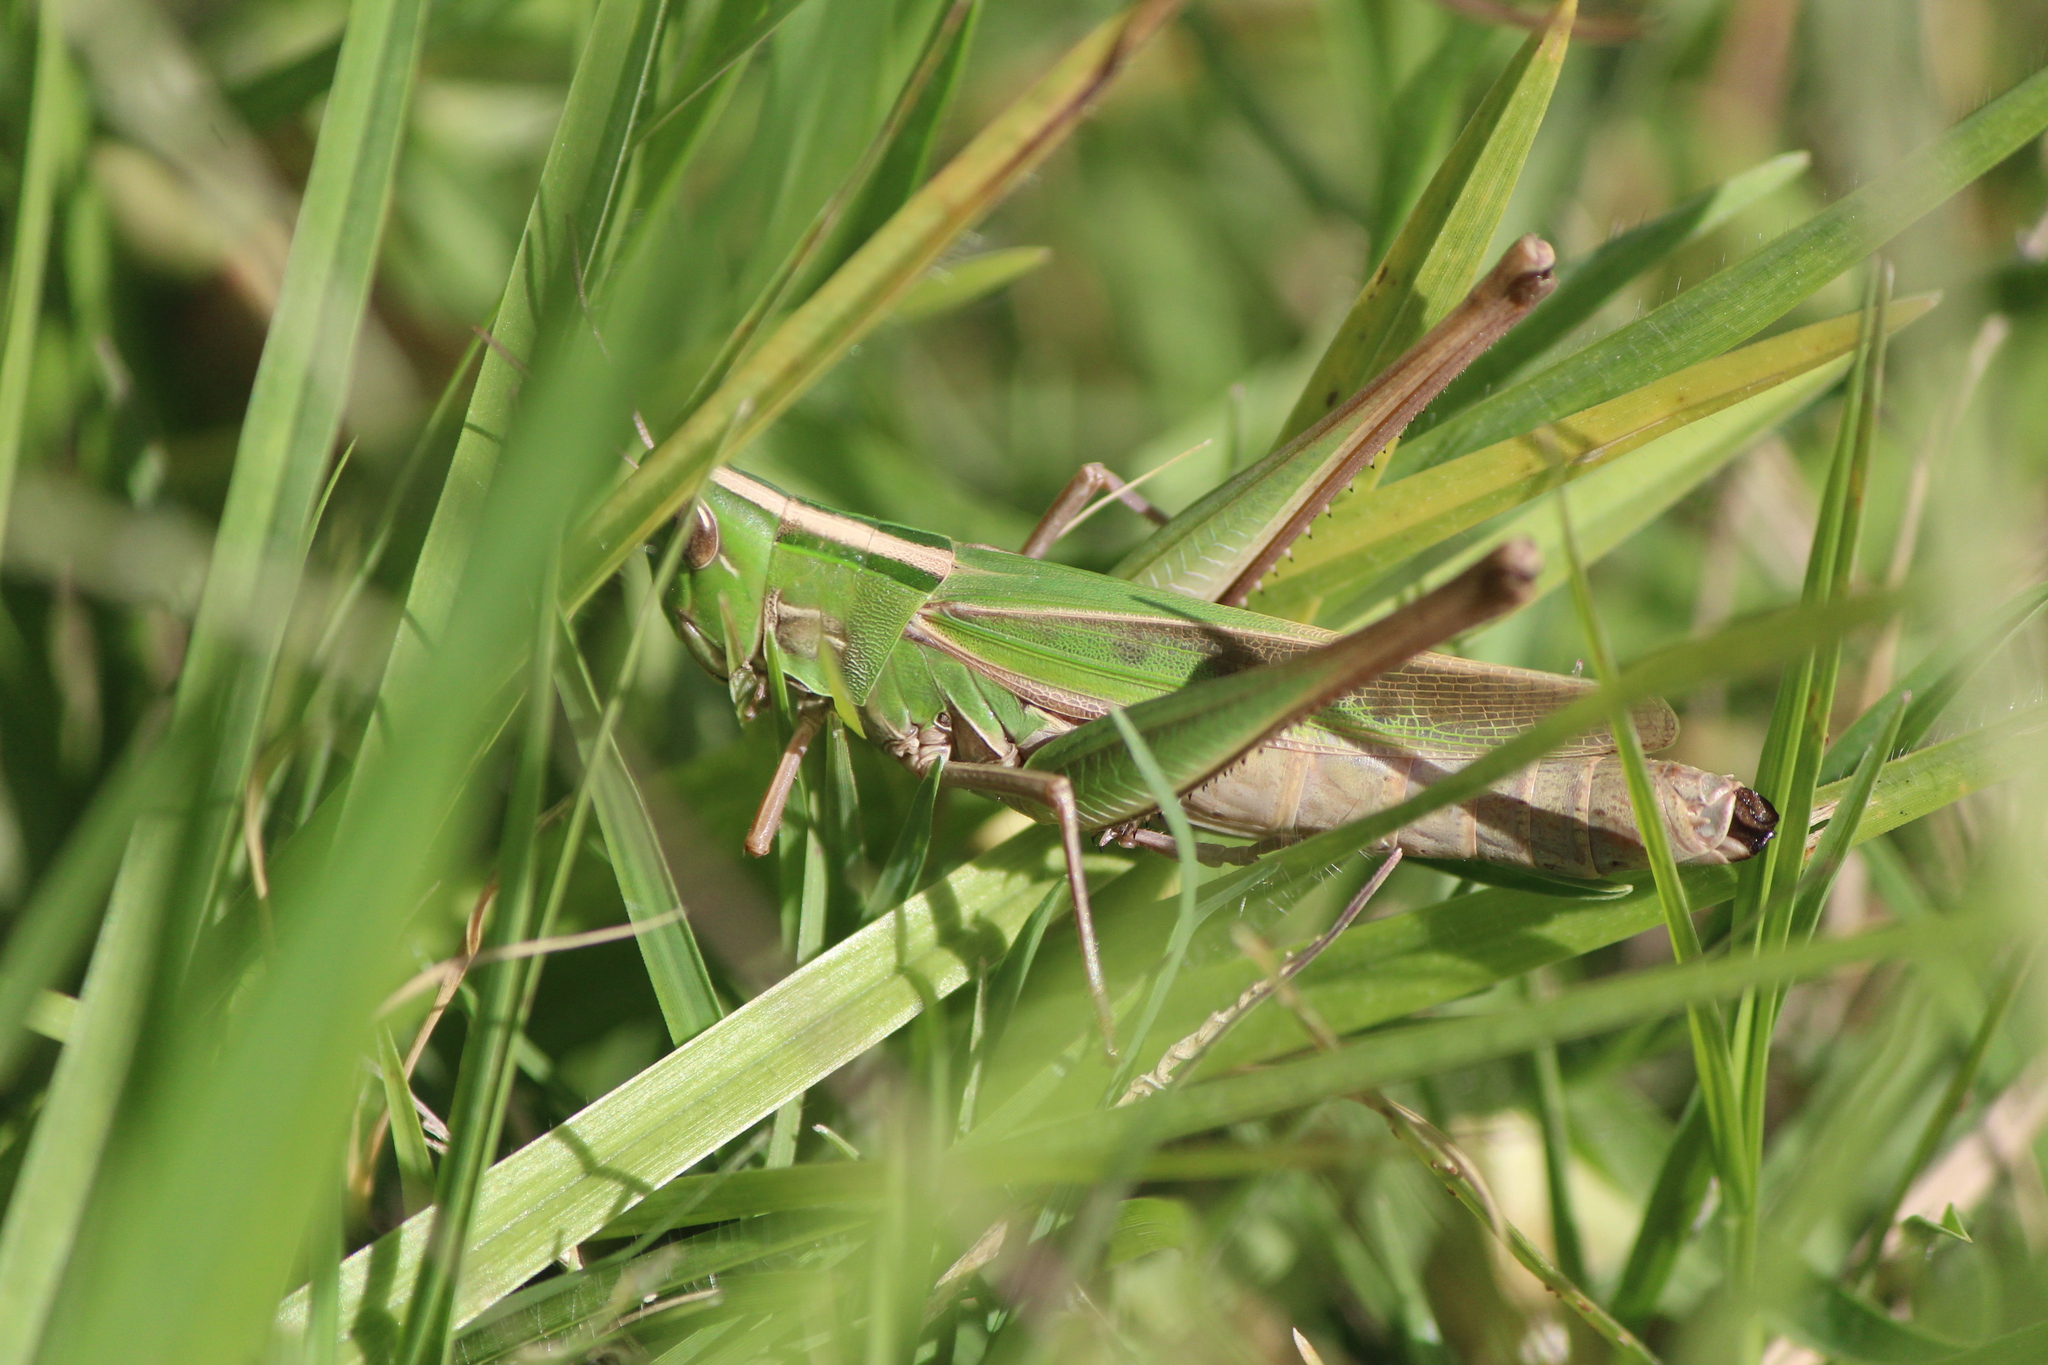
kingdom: Animalia
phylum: Arthropoda
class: Insecta
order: Orthoptera
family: Acrididae
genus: Syrbula
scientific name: Syrbula admirabilis
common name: Handsome grasshopper
